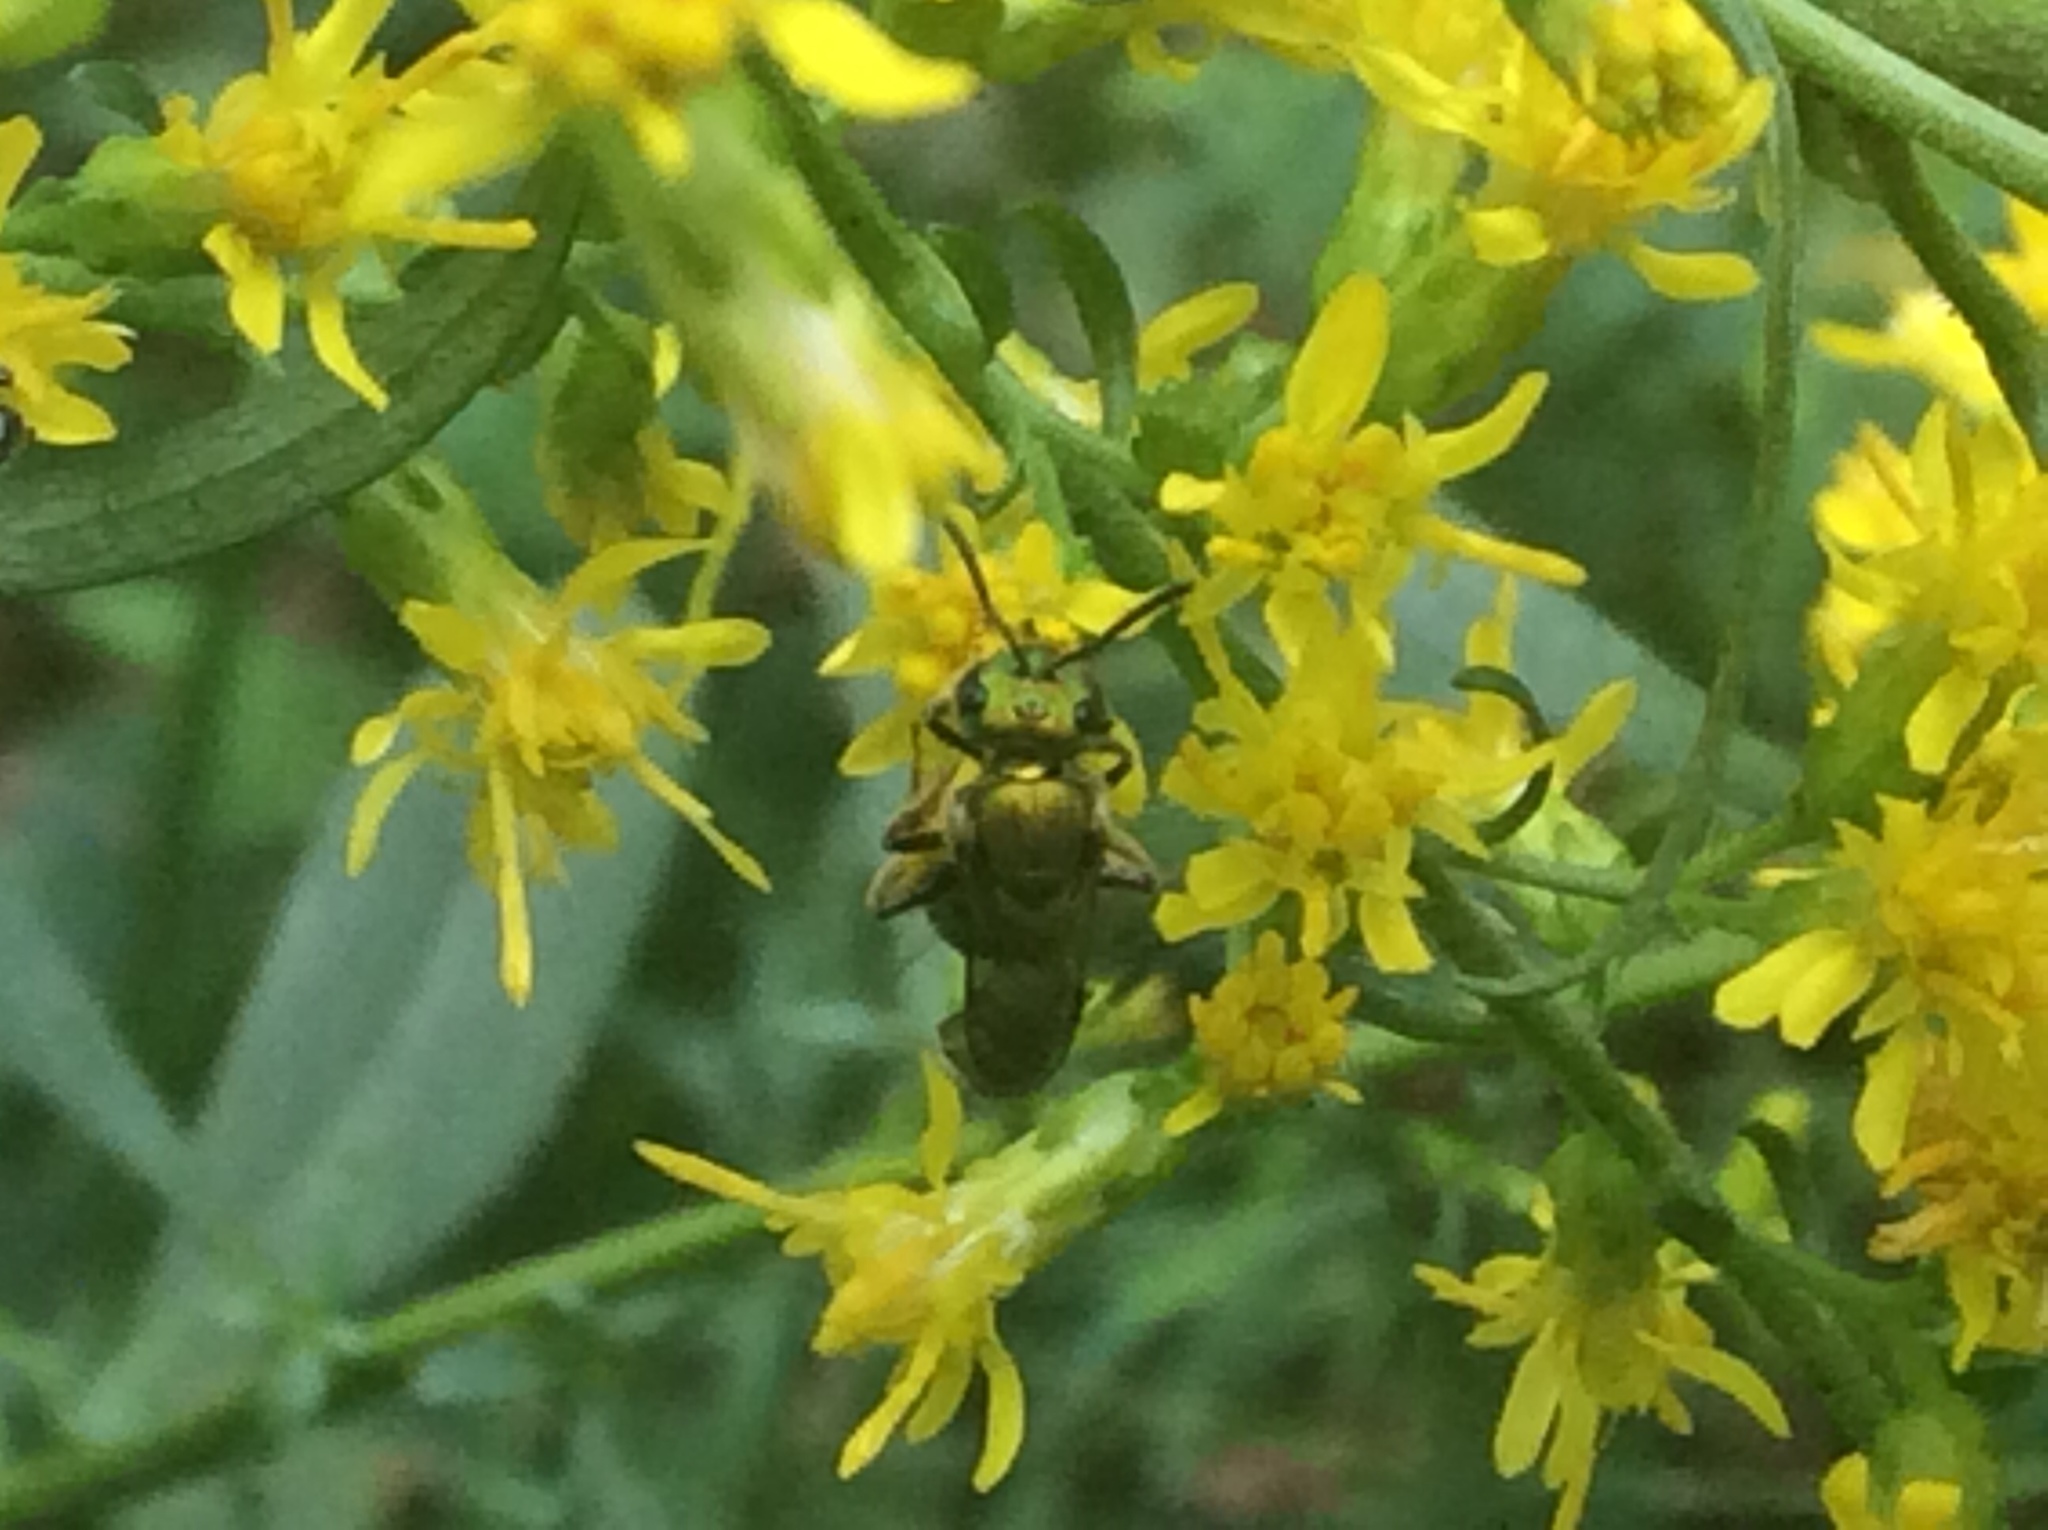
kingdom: Animalia
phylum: Arthropoda
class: Insecta
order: Hymenoptera
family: Halictidae
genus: Augochlora
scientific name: Augochlora pura
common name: Pure green sweat bee
